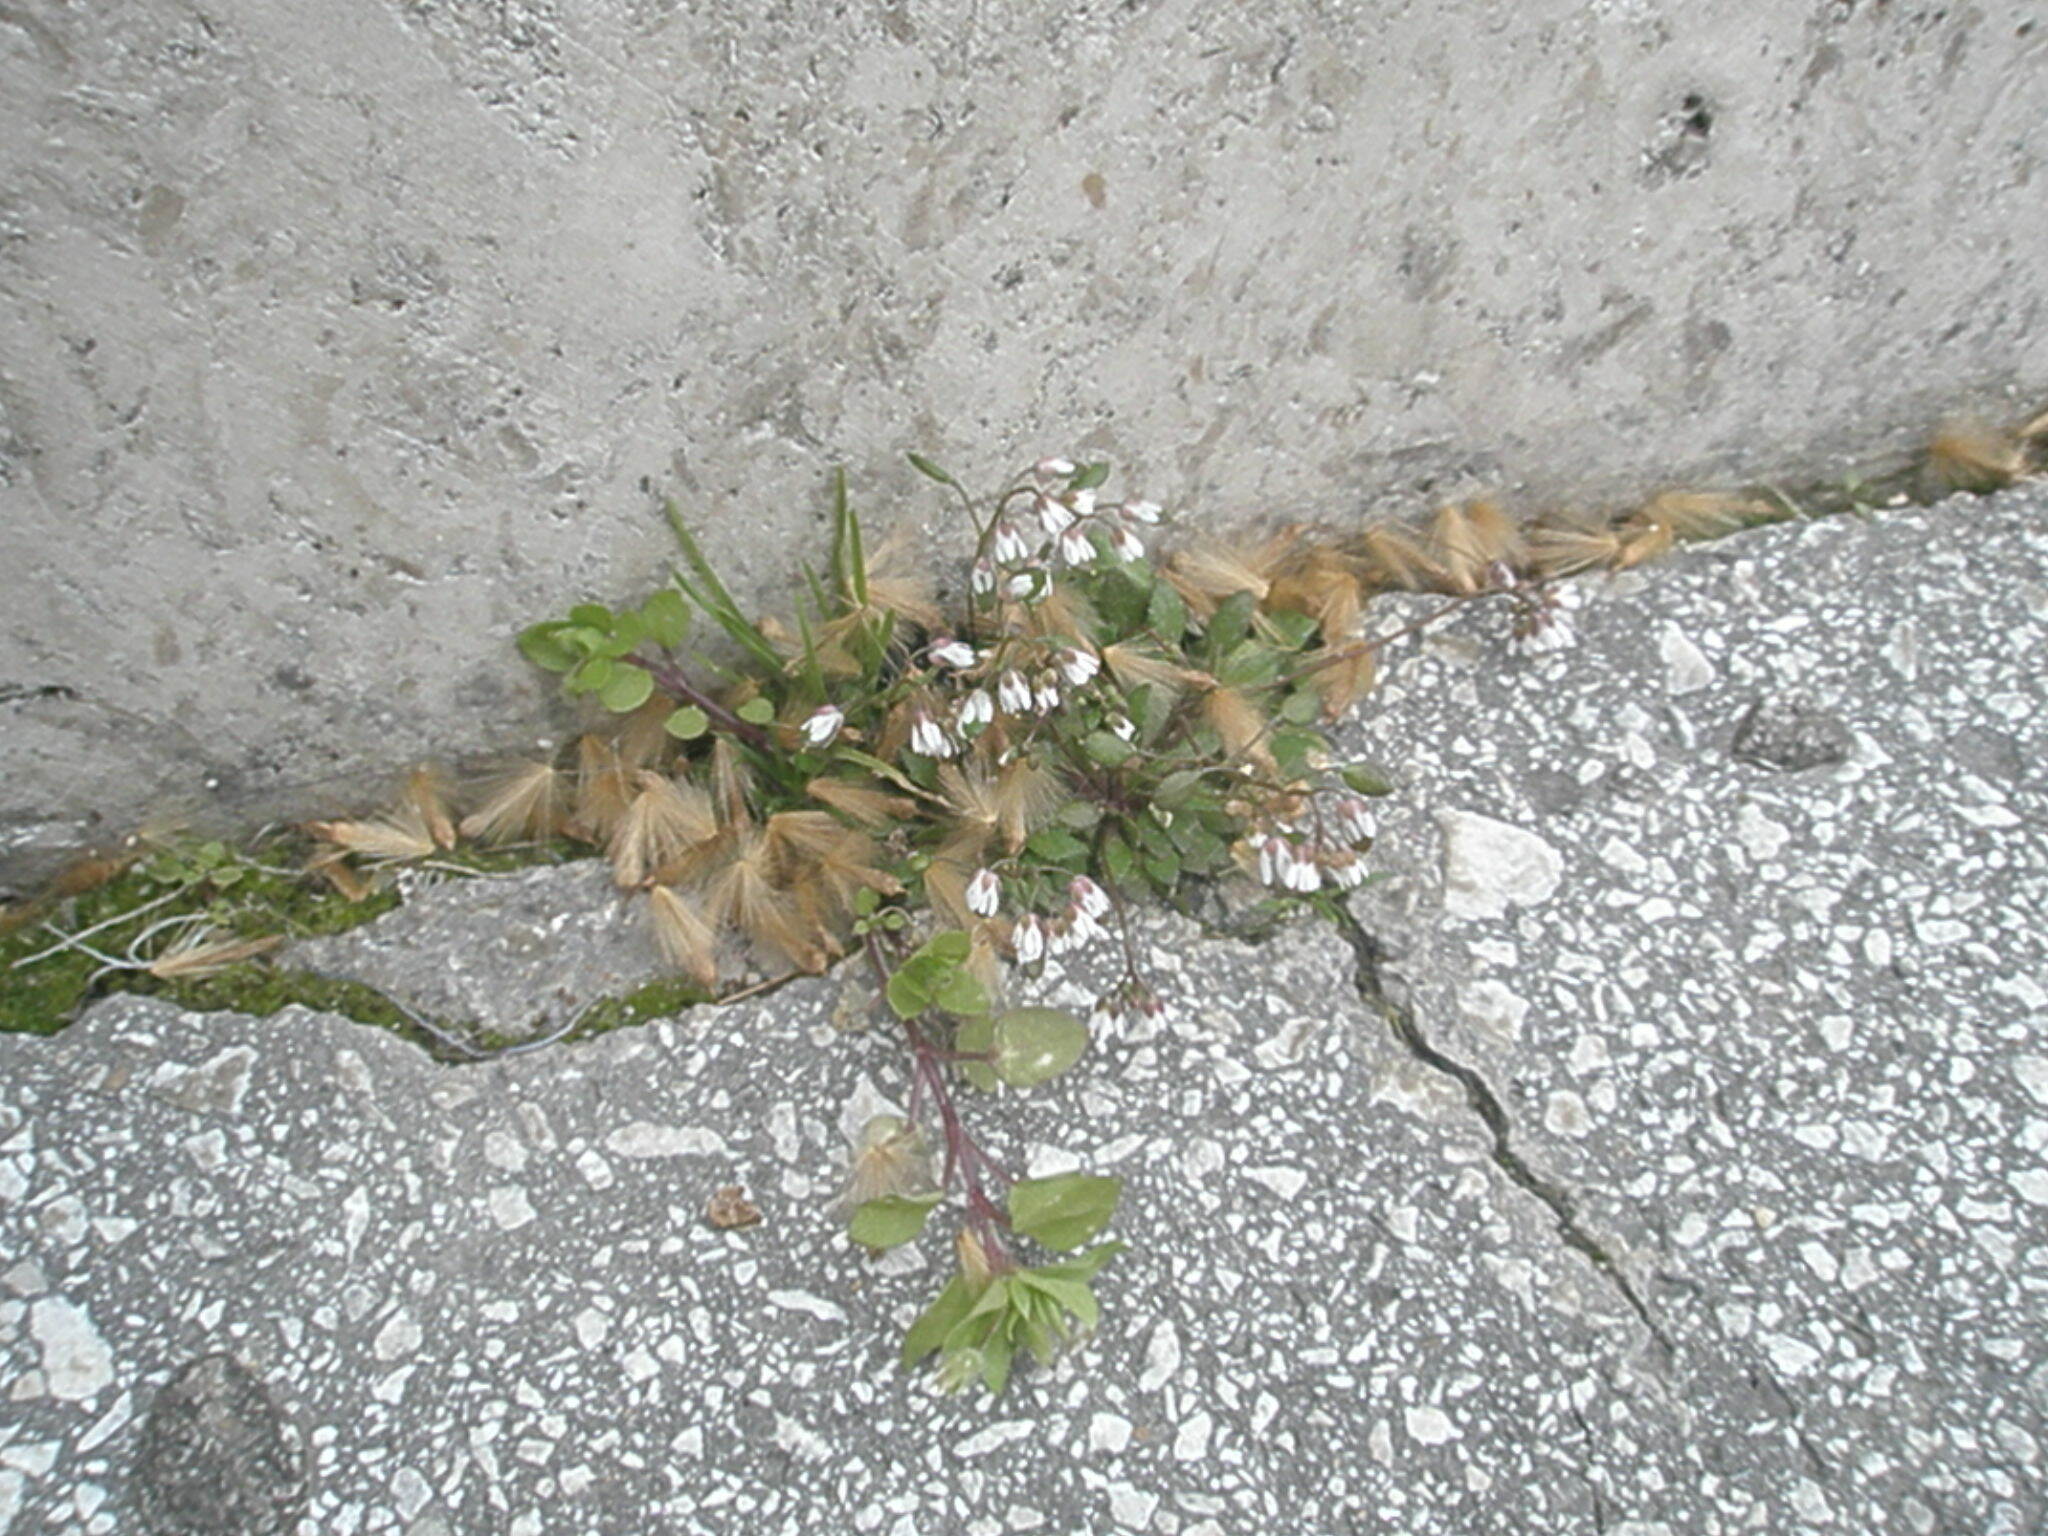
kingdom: Plantae
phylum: Tracheophyta
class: Magnoliopsida
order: Brassicales
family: Brassicaceae
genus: Draba
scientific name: Draba verna
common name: Spring draba
